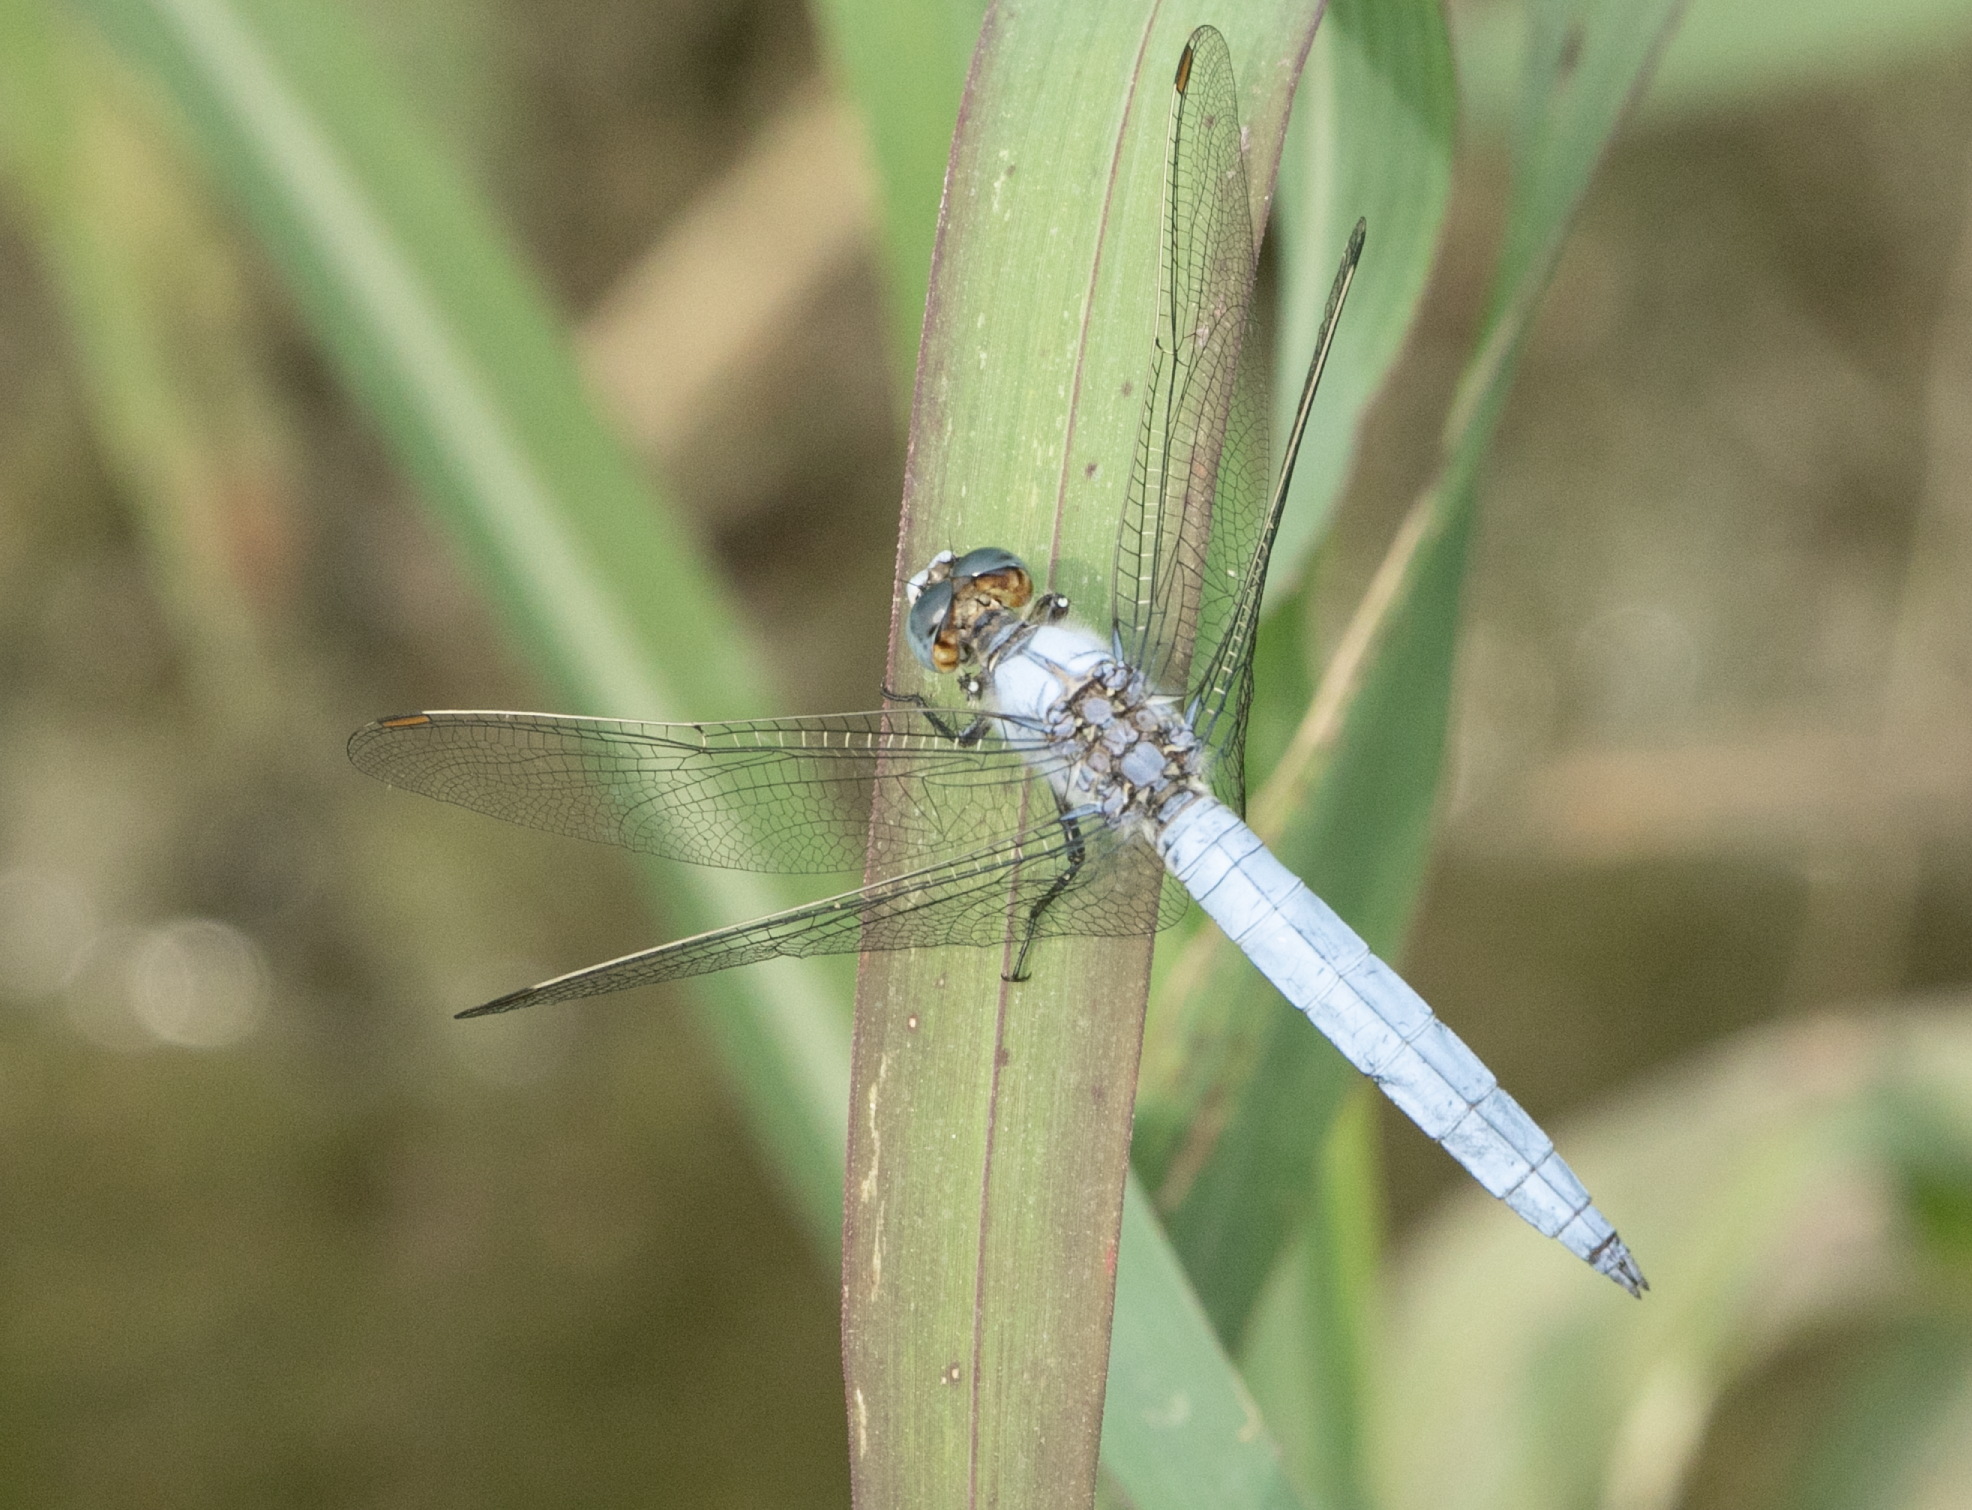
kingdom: Animalia
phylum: Arthropoda
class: Insecta
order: Odonata
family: Libellulidae
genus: Orthetrum
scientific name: Orthetrum brunneum
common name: Southern skimmer
